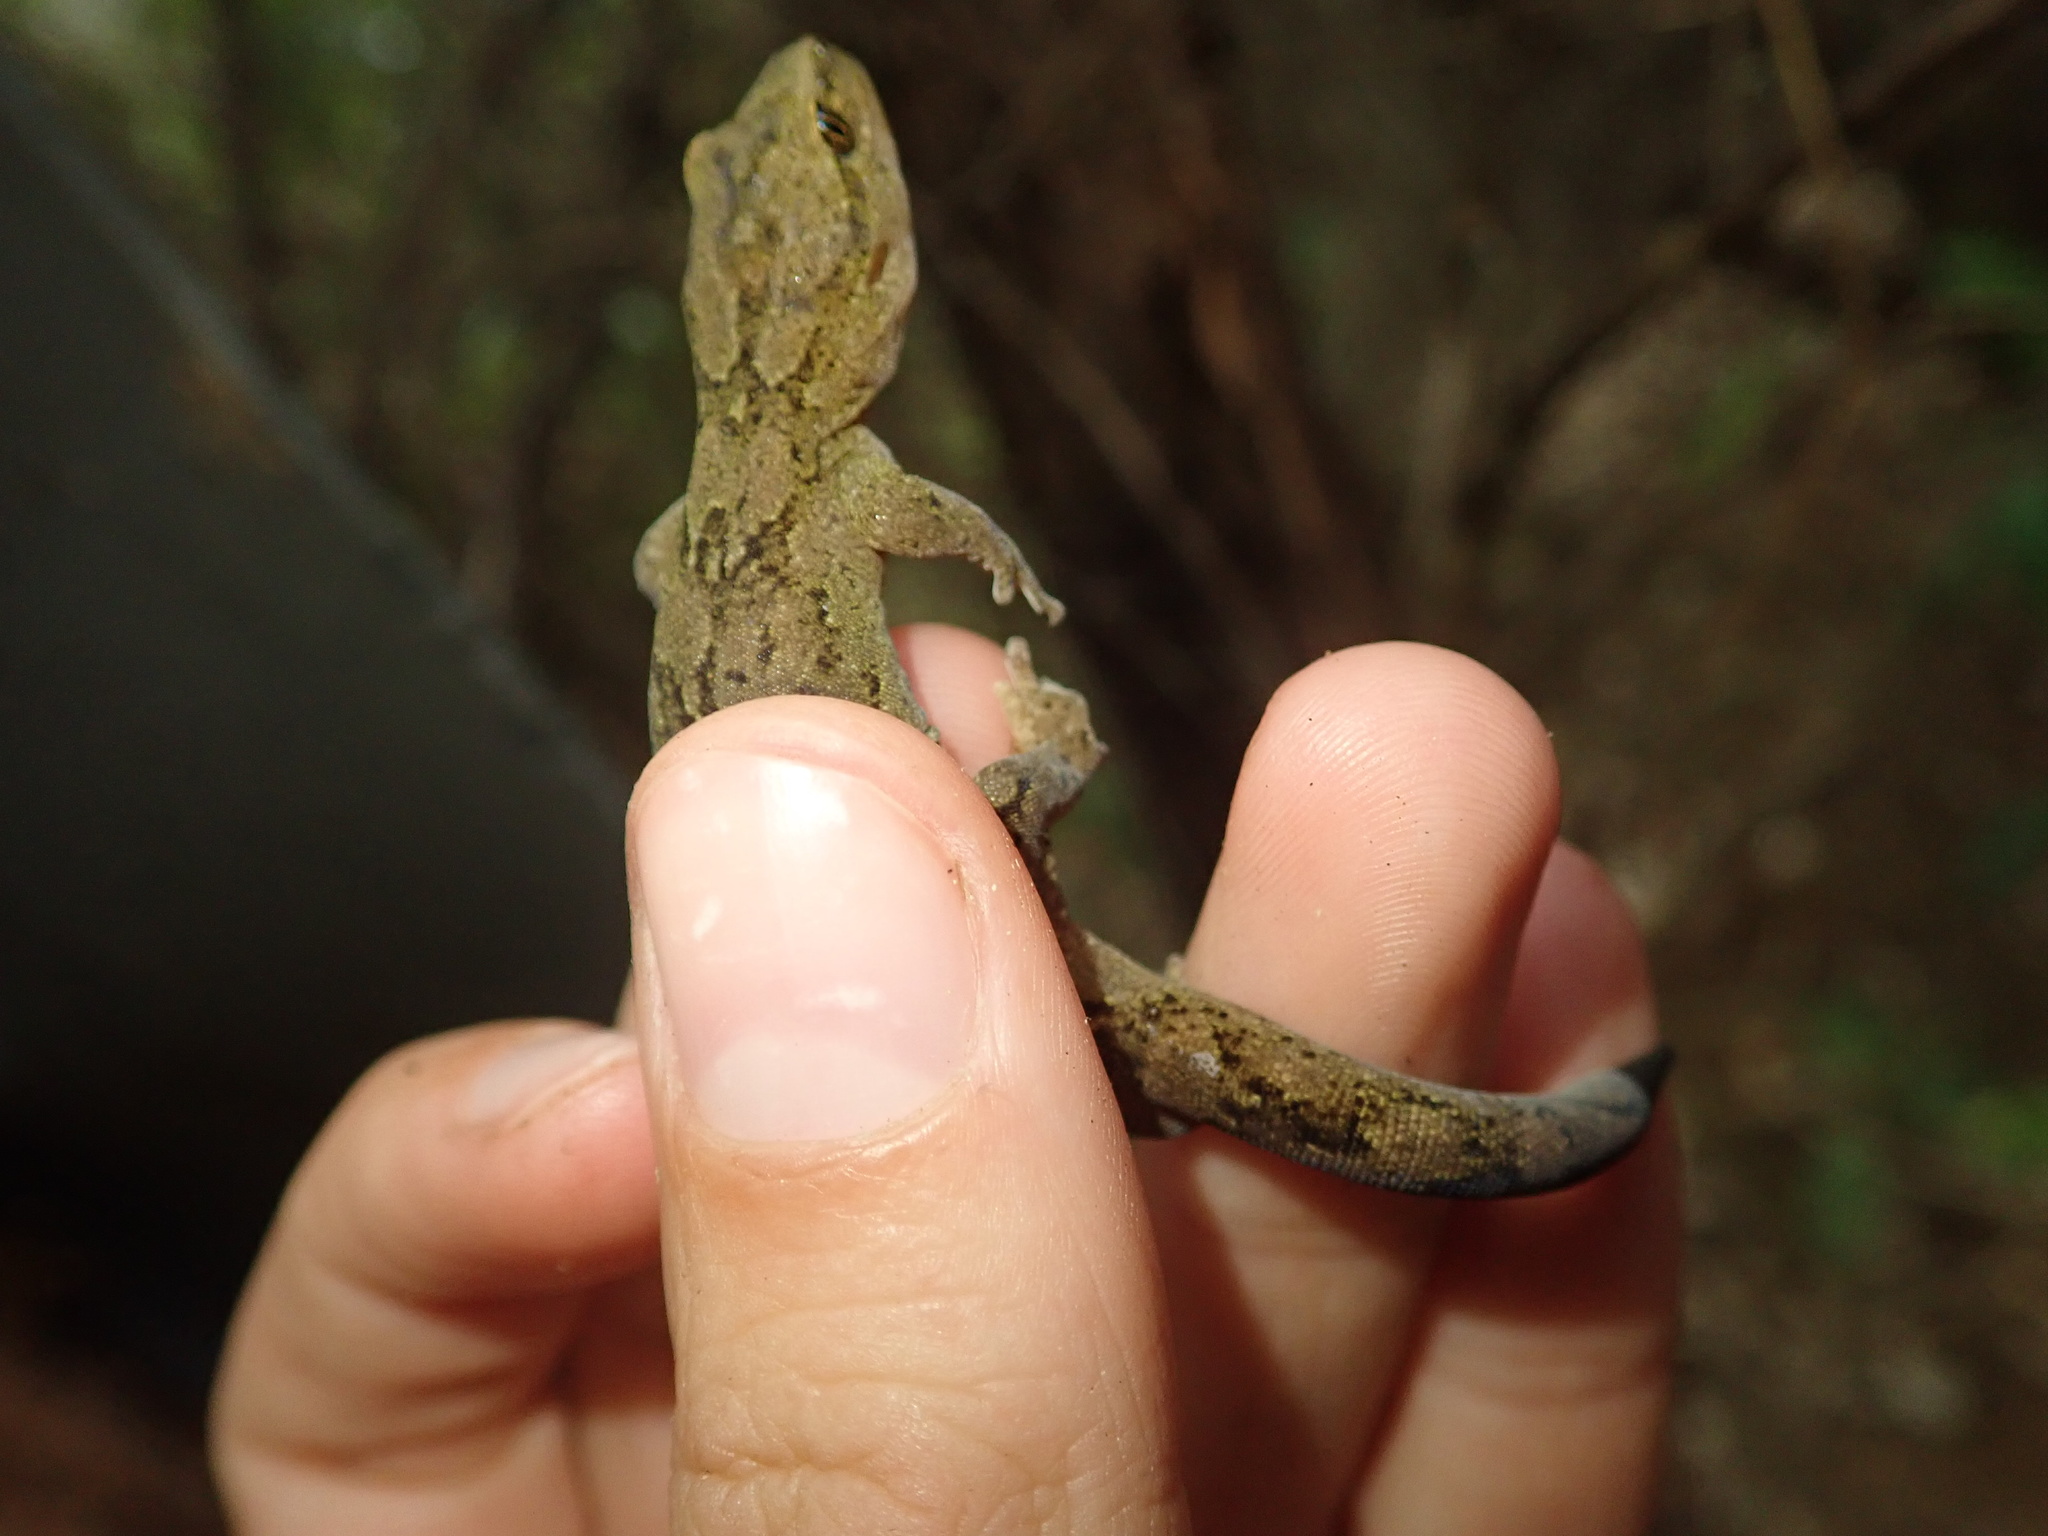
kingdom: Animalia
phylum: Chordata
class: Squamata
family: Diplodactylidae
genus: Woodworthia
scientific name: Woodworthia maculata
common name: Raukawa gecko
